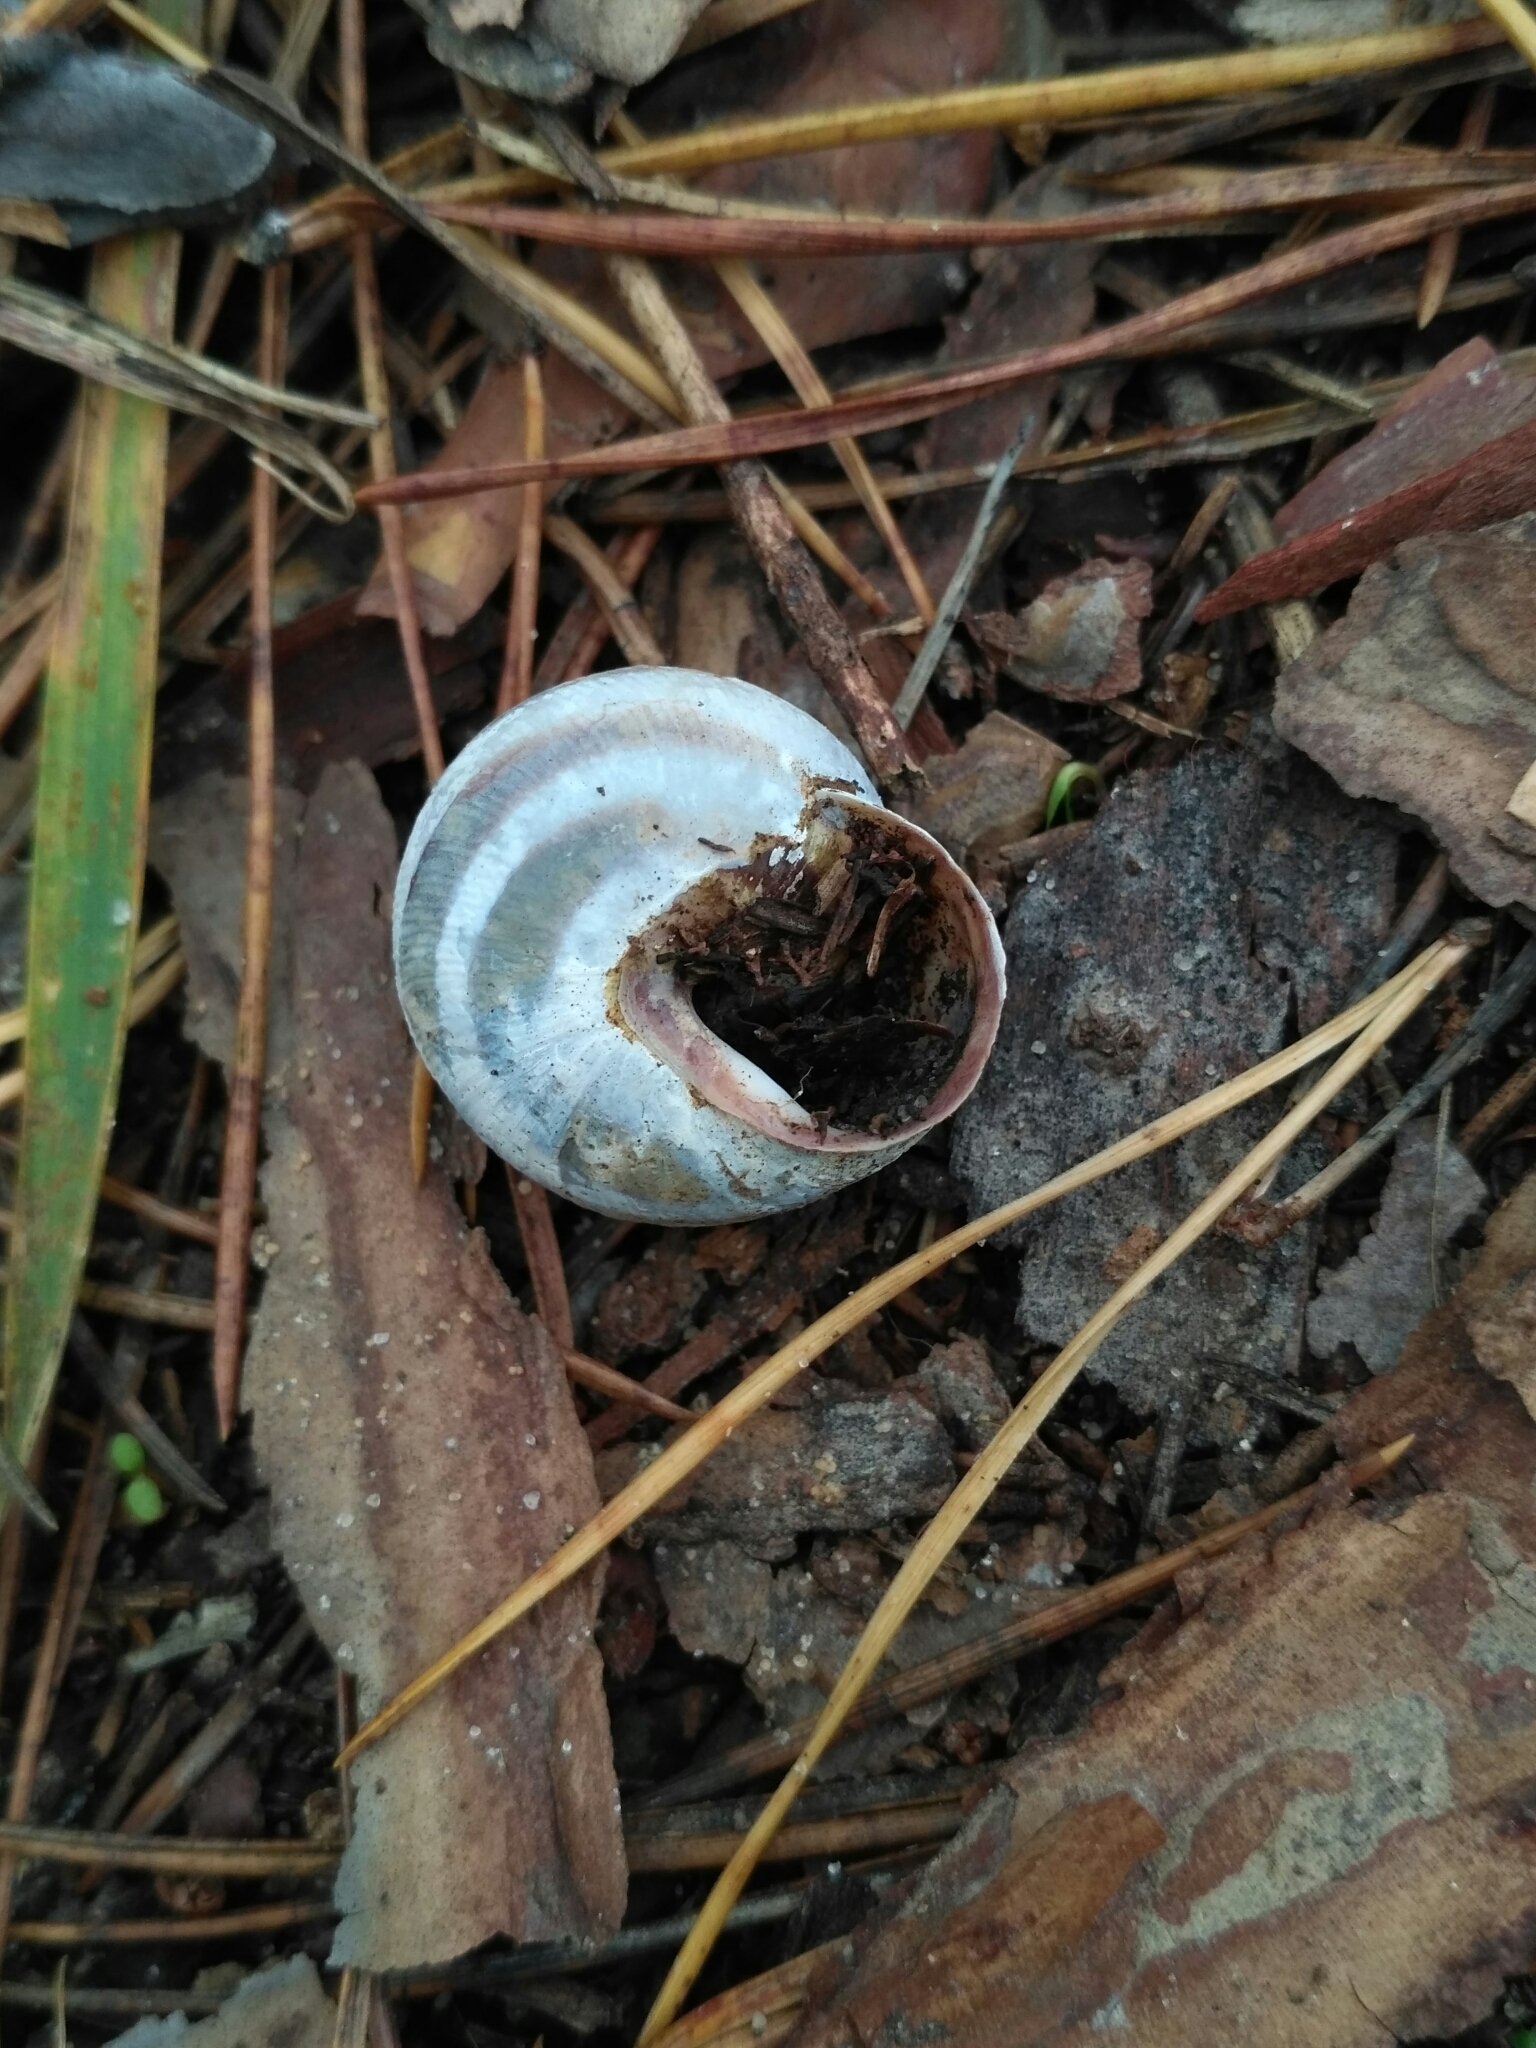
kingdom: Animalia
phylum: Mollusca
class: Gastropoda
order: Stylommatophora
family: Helicidae
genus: Caucasotachea
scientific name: Caucasotachea vindobonensis
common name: European helicid land snail
